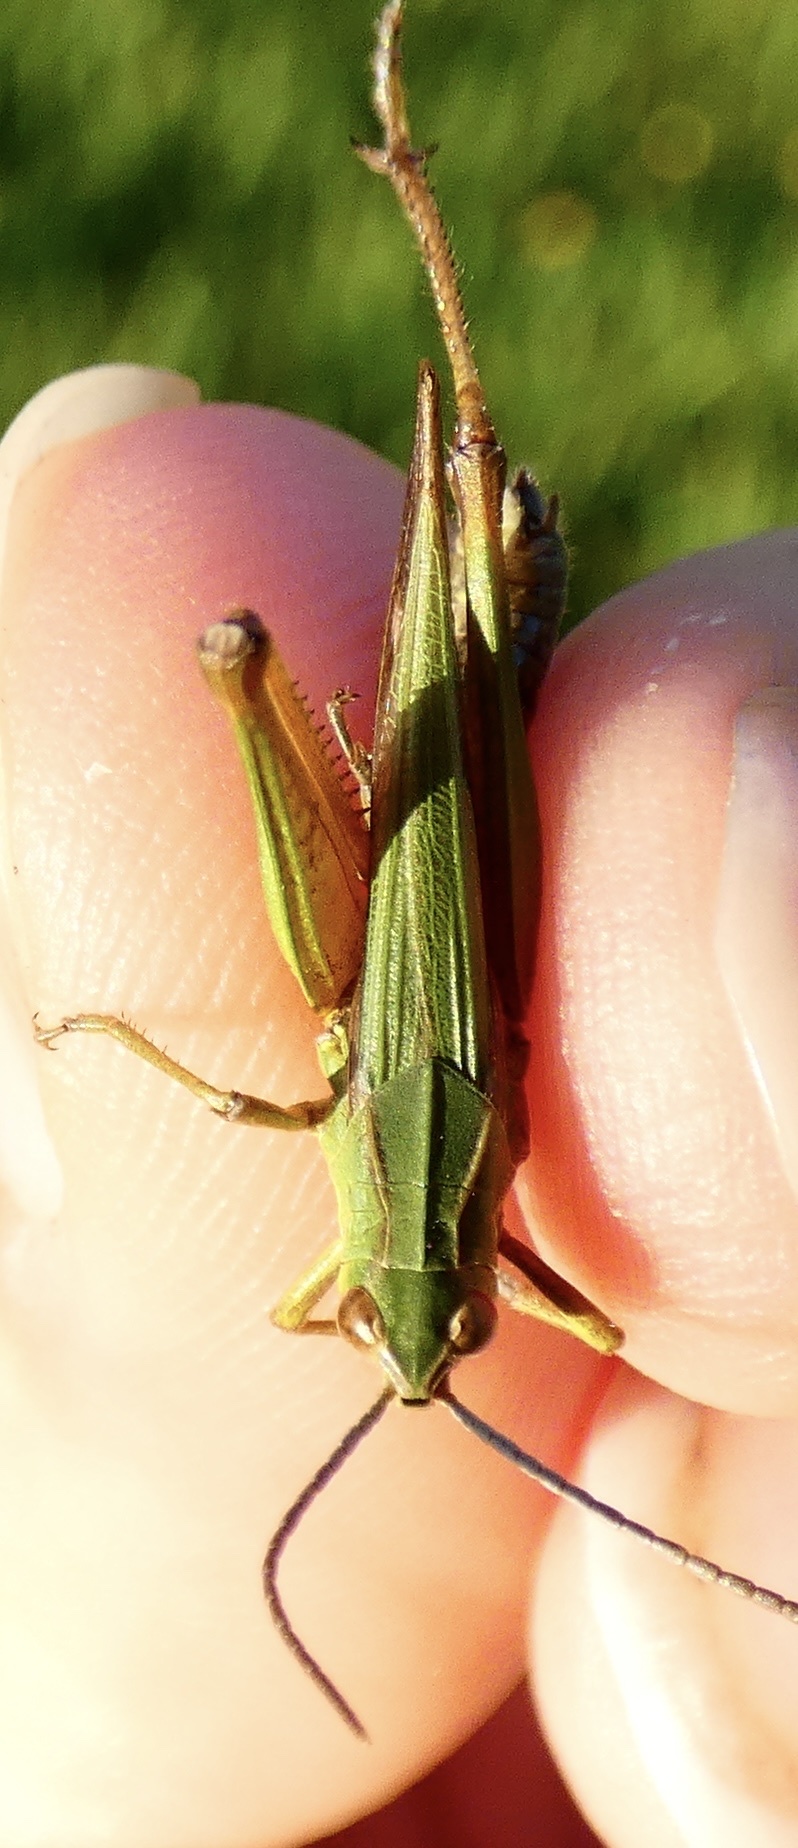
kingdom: Animalia
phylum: Arthropoda
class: Insecta
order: Orthoptera
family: Acrididae
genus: Omocestus
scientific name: Omocestus viridulus
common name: Common green grasshopper
